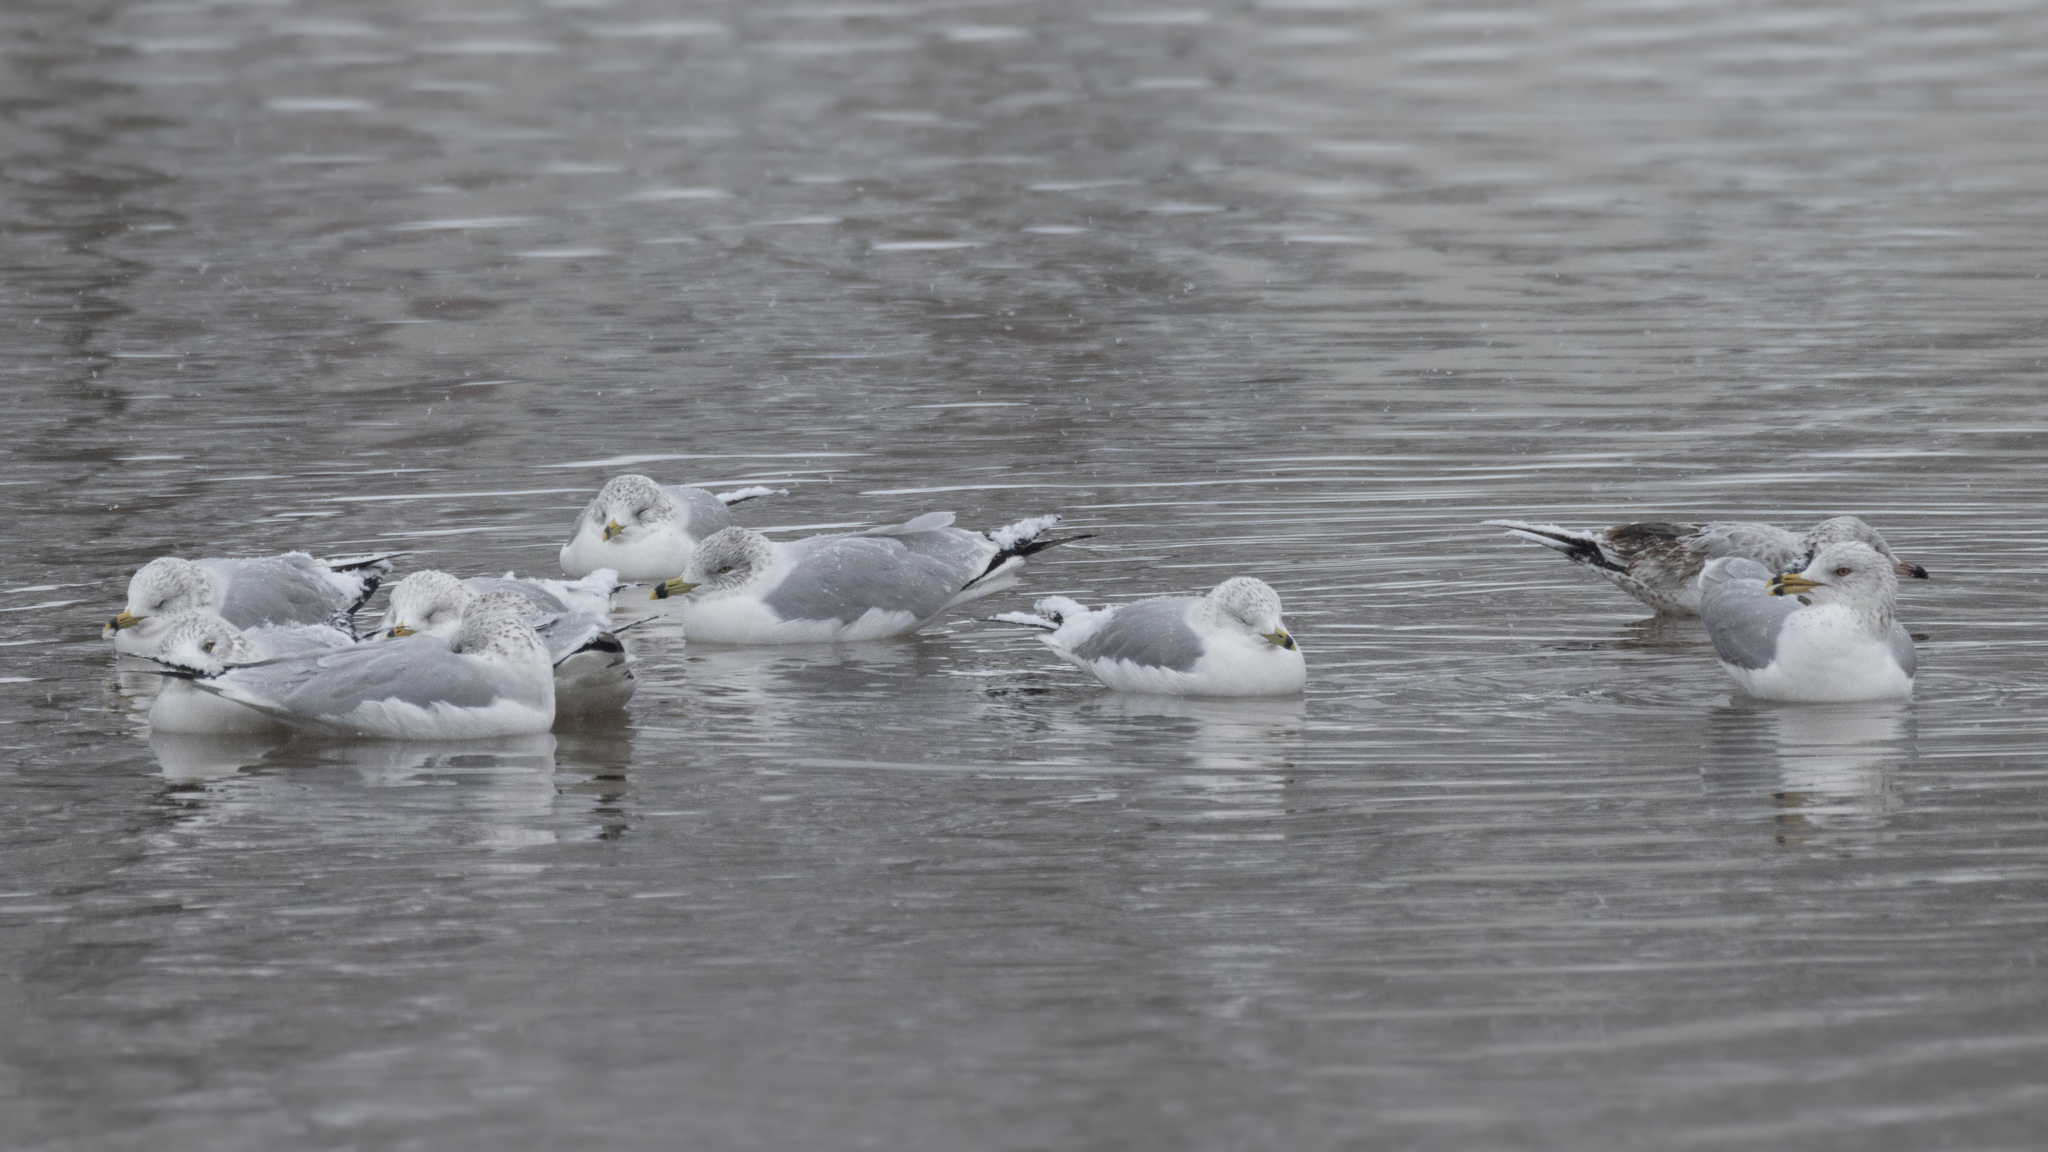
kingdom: Animalia
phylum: Chordata
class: Aves
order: Charadriiformes
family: Laridae
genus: Larus
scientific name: Larus delawarensis
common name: Ring-billed gull
